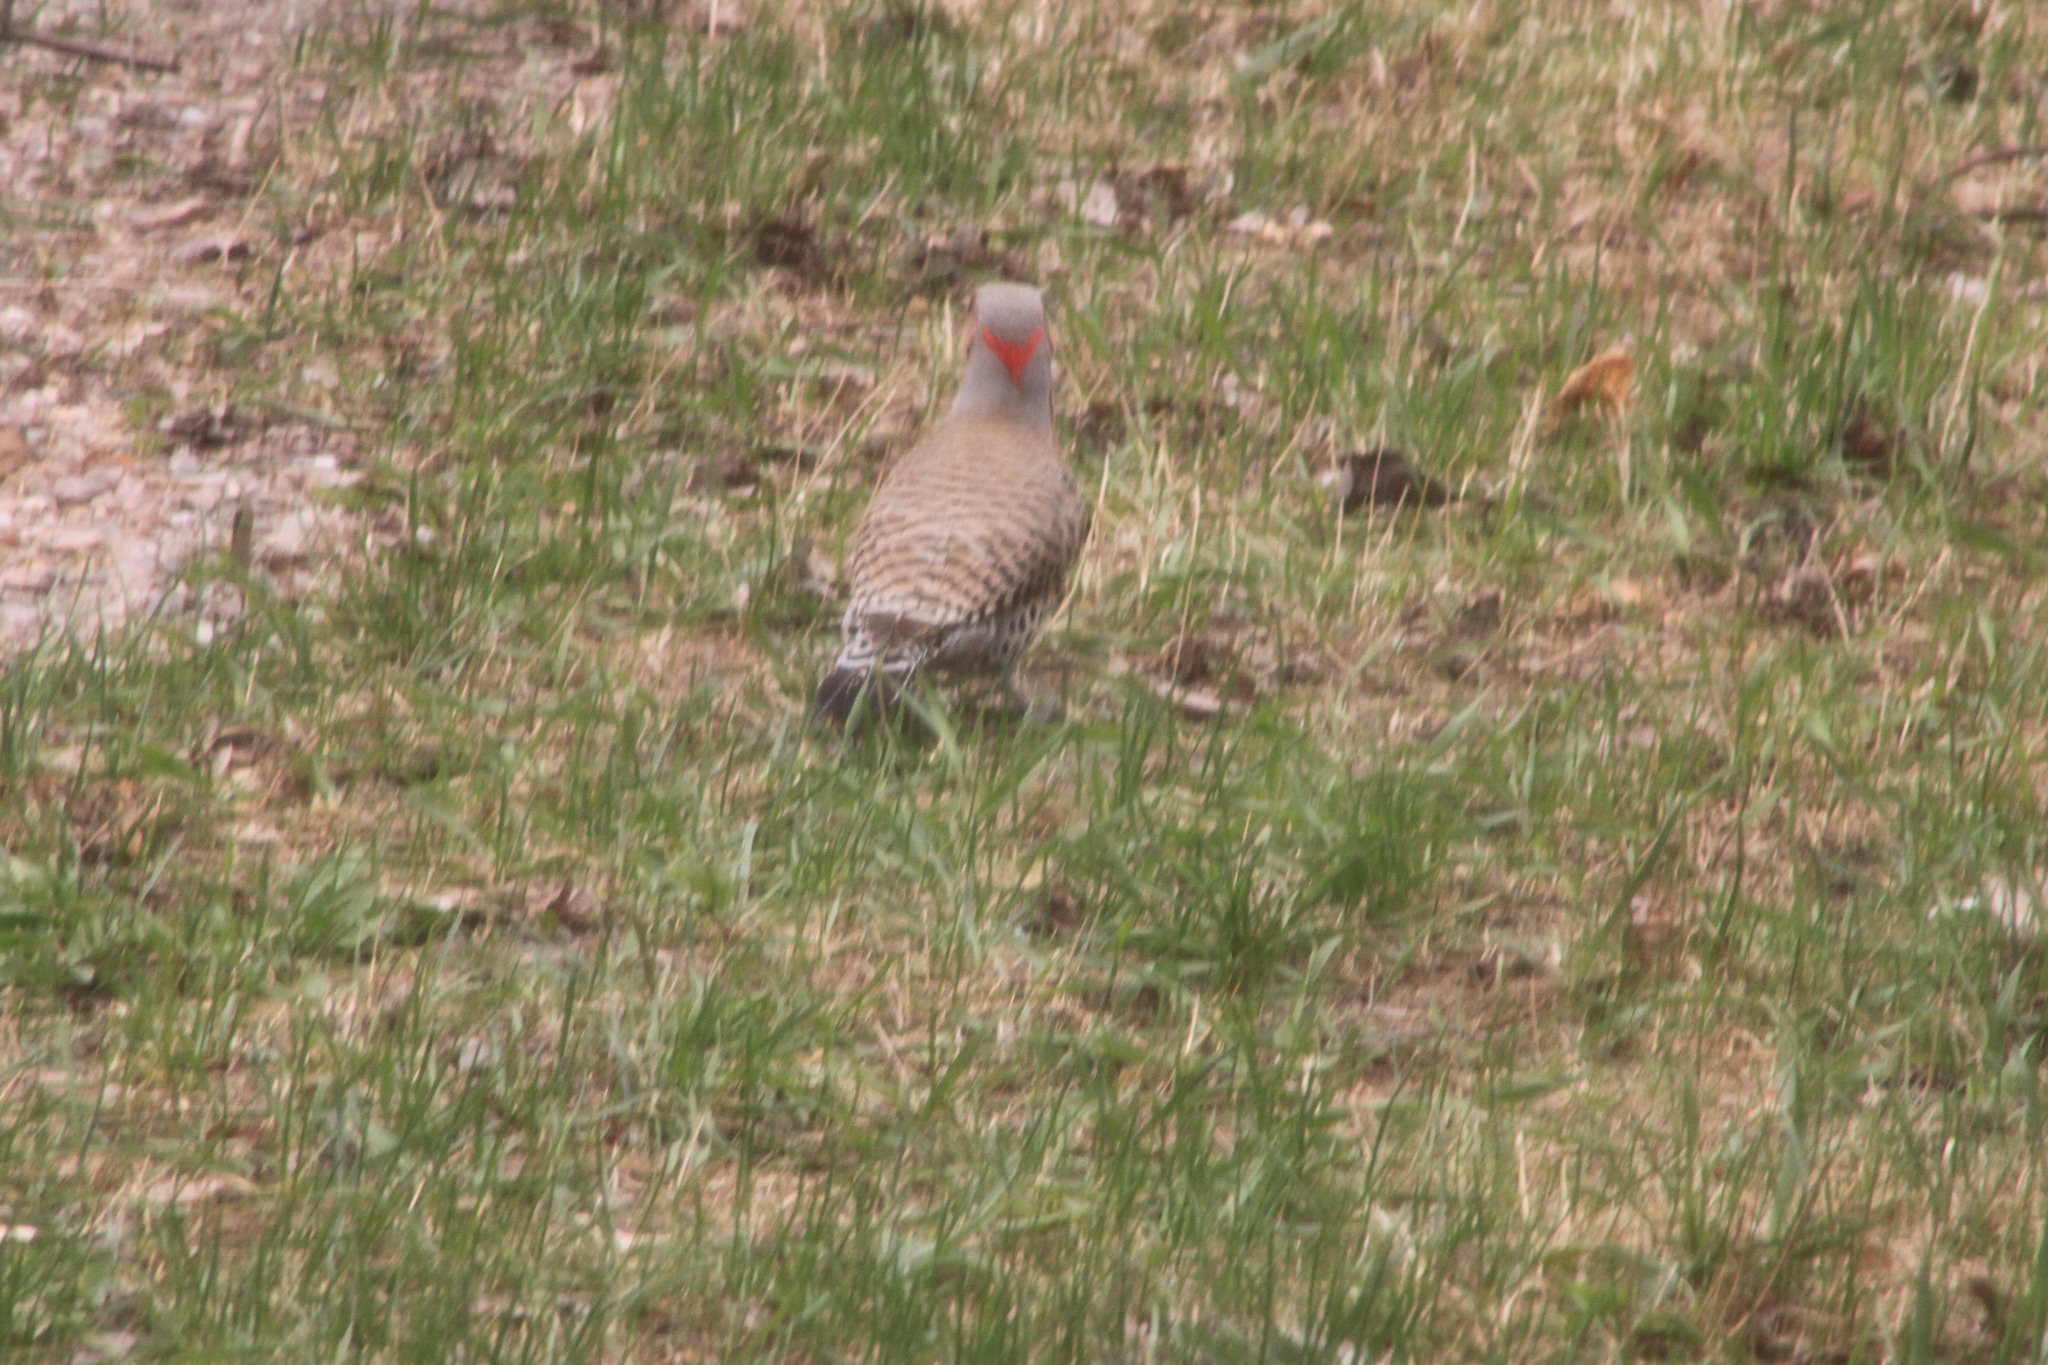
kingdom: Animalia
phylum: Chordata
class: Aves
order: Piciformes
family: Picidae
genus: Colaptes
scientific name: Colaptes auratus
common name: Northern flicker
